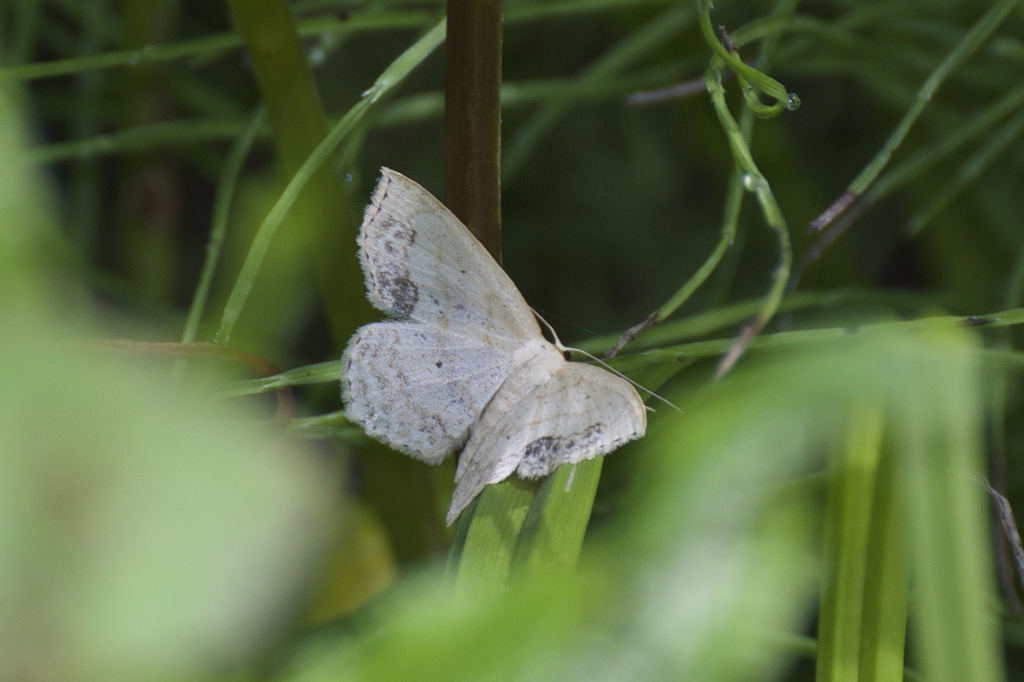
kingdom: Animalia
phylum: Arthropoda
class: Insecta
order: Lepidoptera
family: Geometridae
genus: Scopula
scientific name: Scopula limboundata
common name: Large lace border
